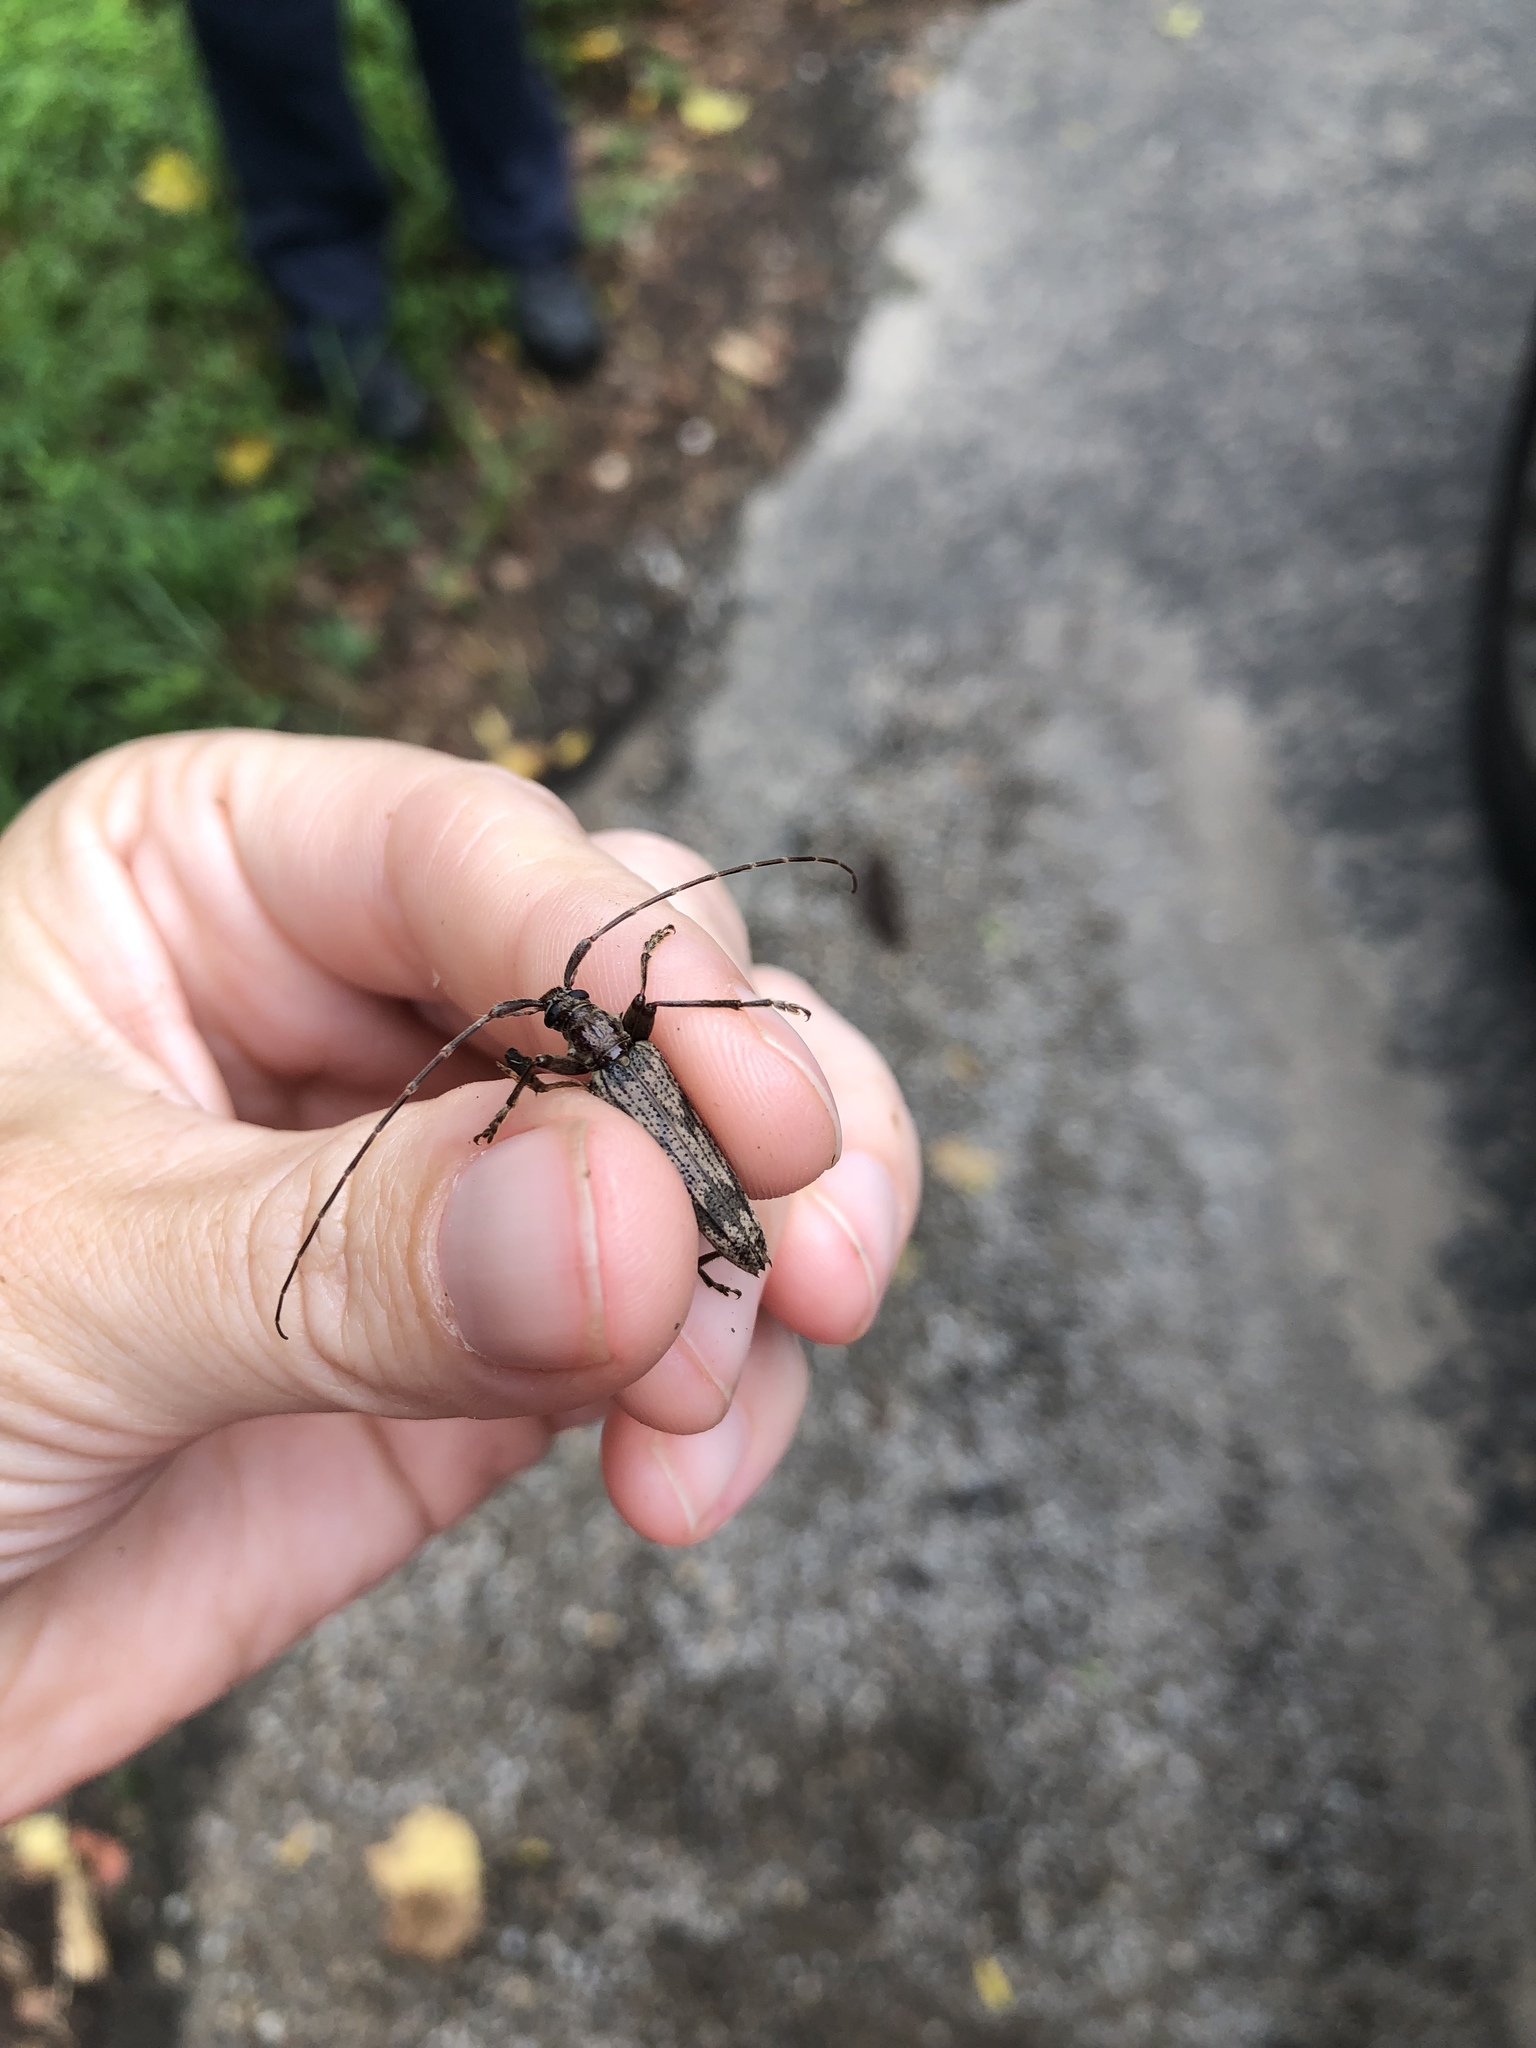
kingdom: Animalia
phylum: Arthropoda
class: Insecta
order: Coleoptera
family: Cerambycidae
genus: Elytrimitatrix
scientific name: Elytrimitatrix undata
